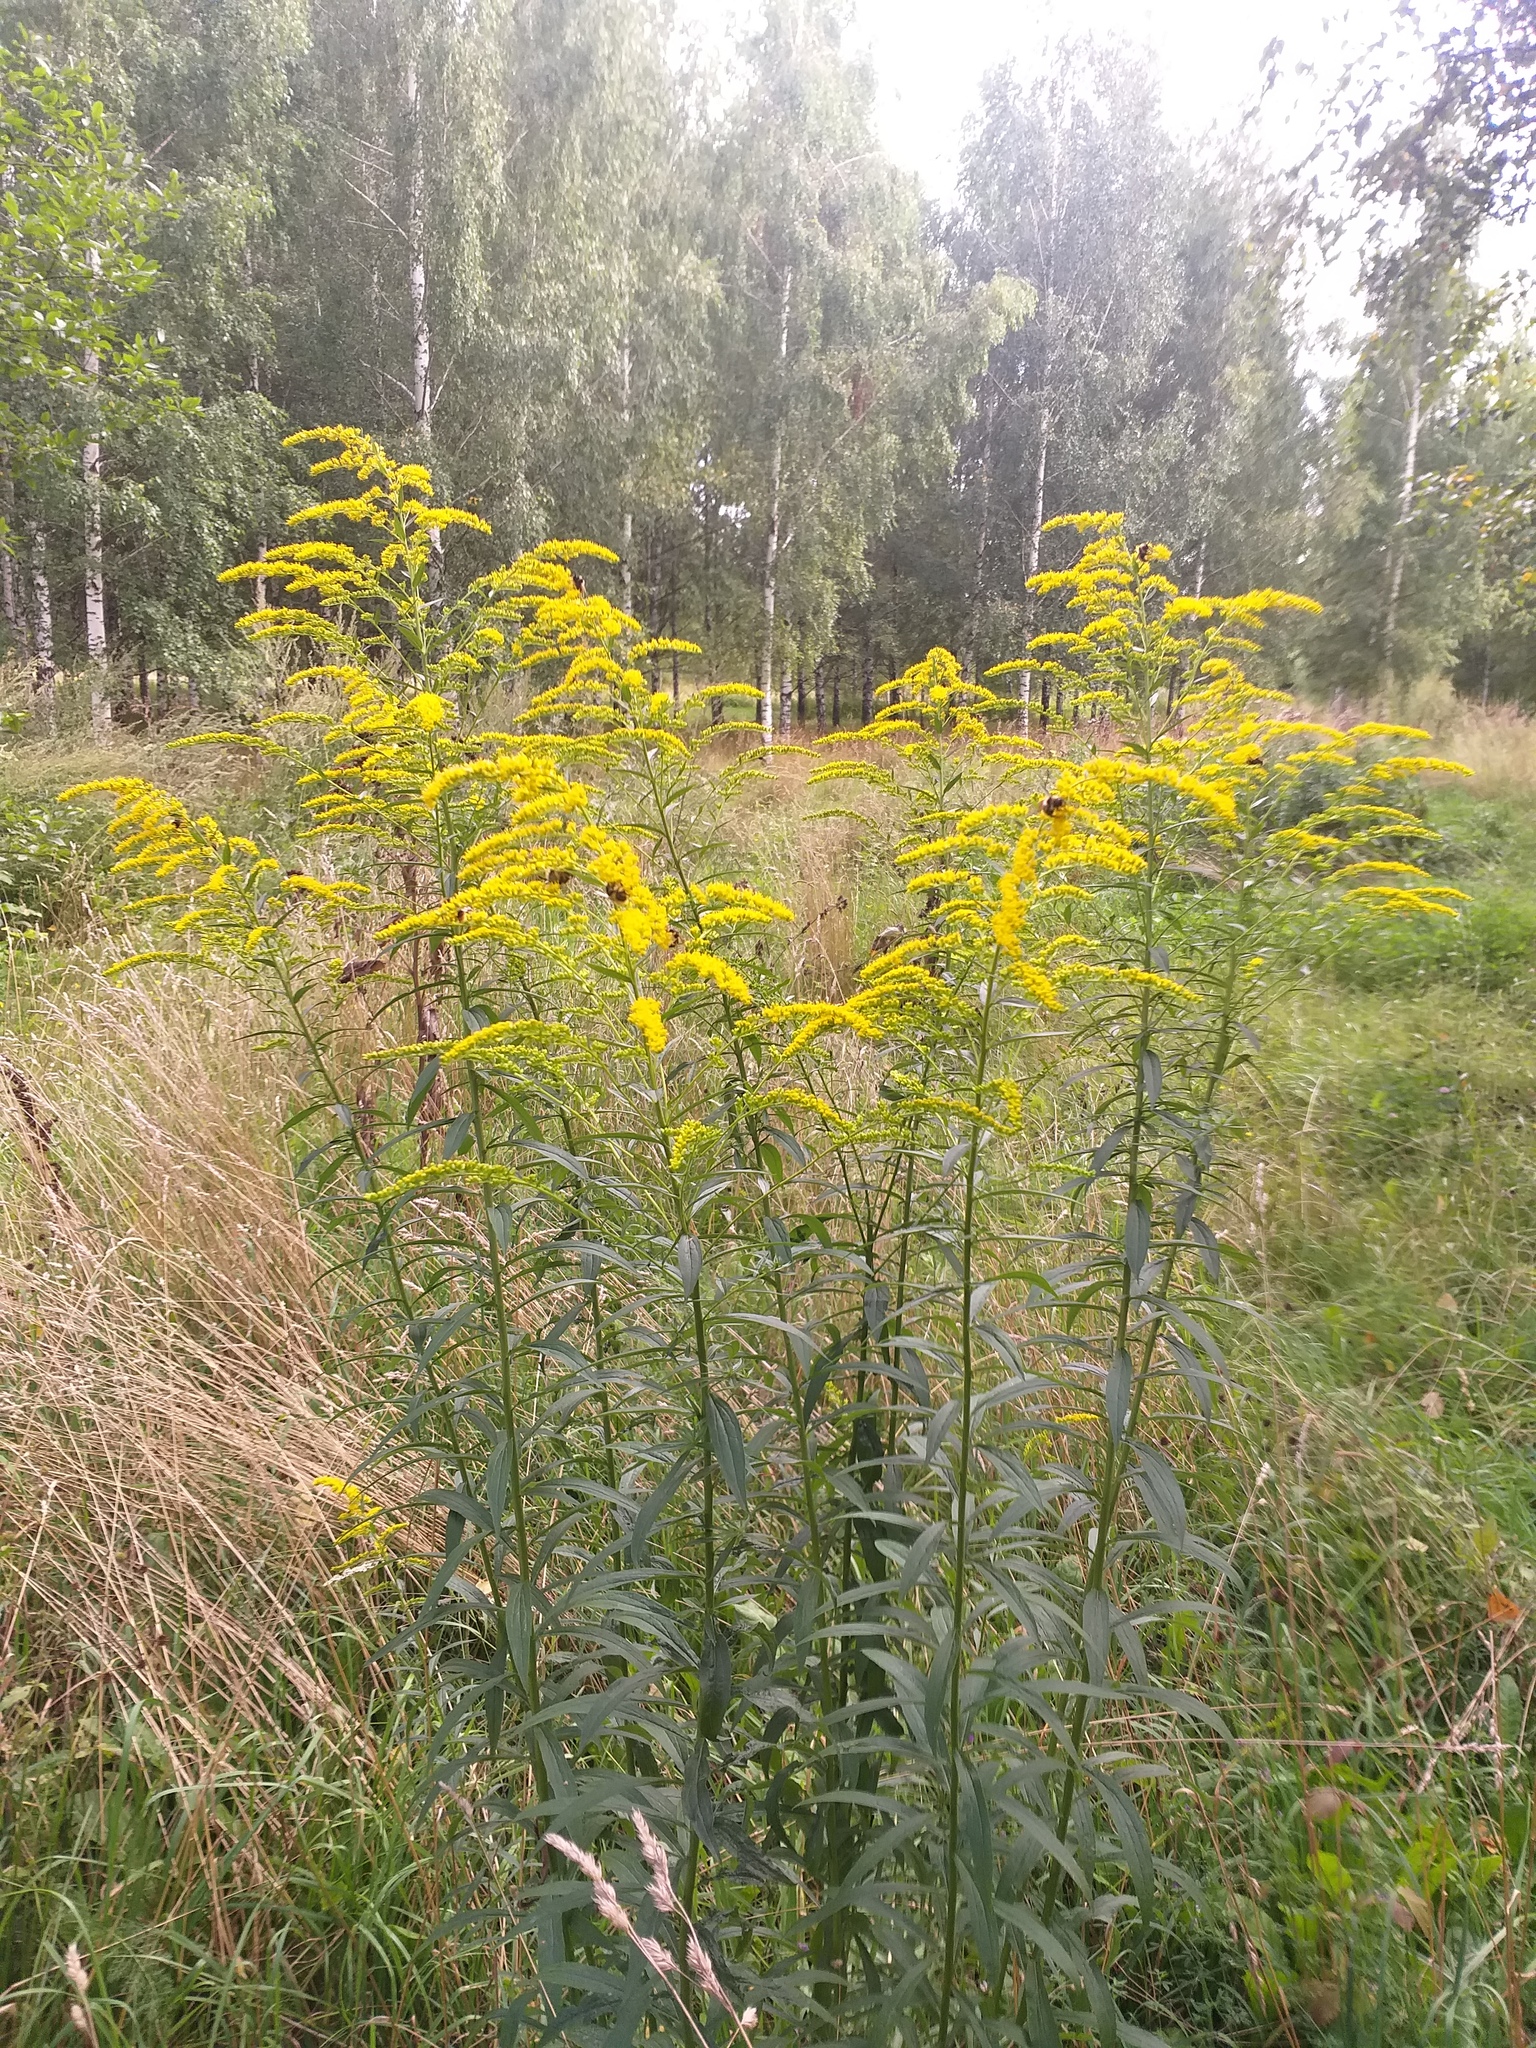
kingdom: Plantae
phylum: Tracheophyta
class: Magnoliopsida
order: Asterales
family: Asteraceae
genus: Solidago
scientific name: Solidago canadensis
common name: Canada goldenrod
